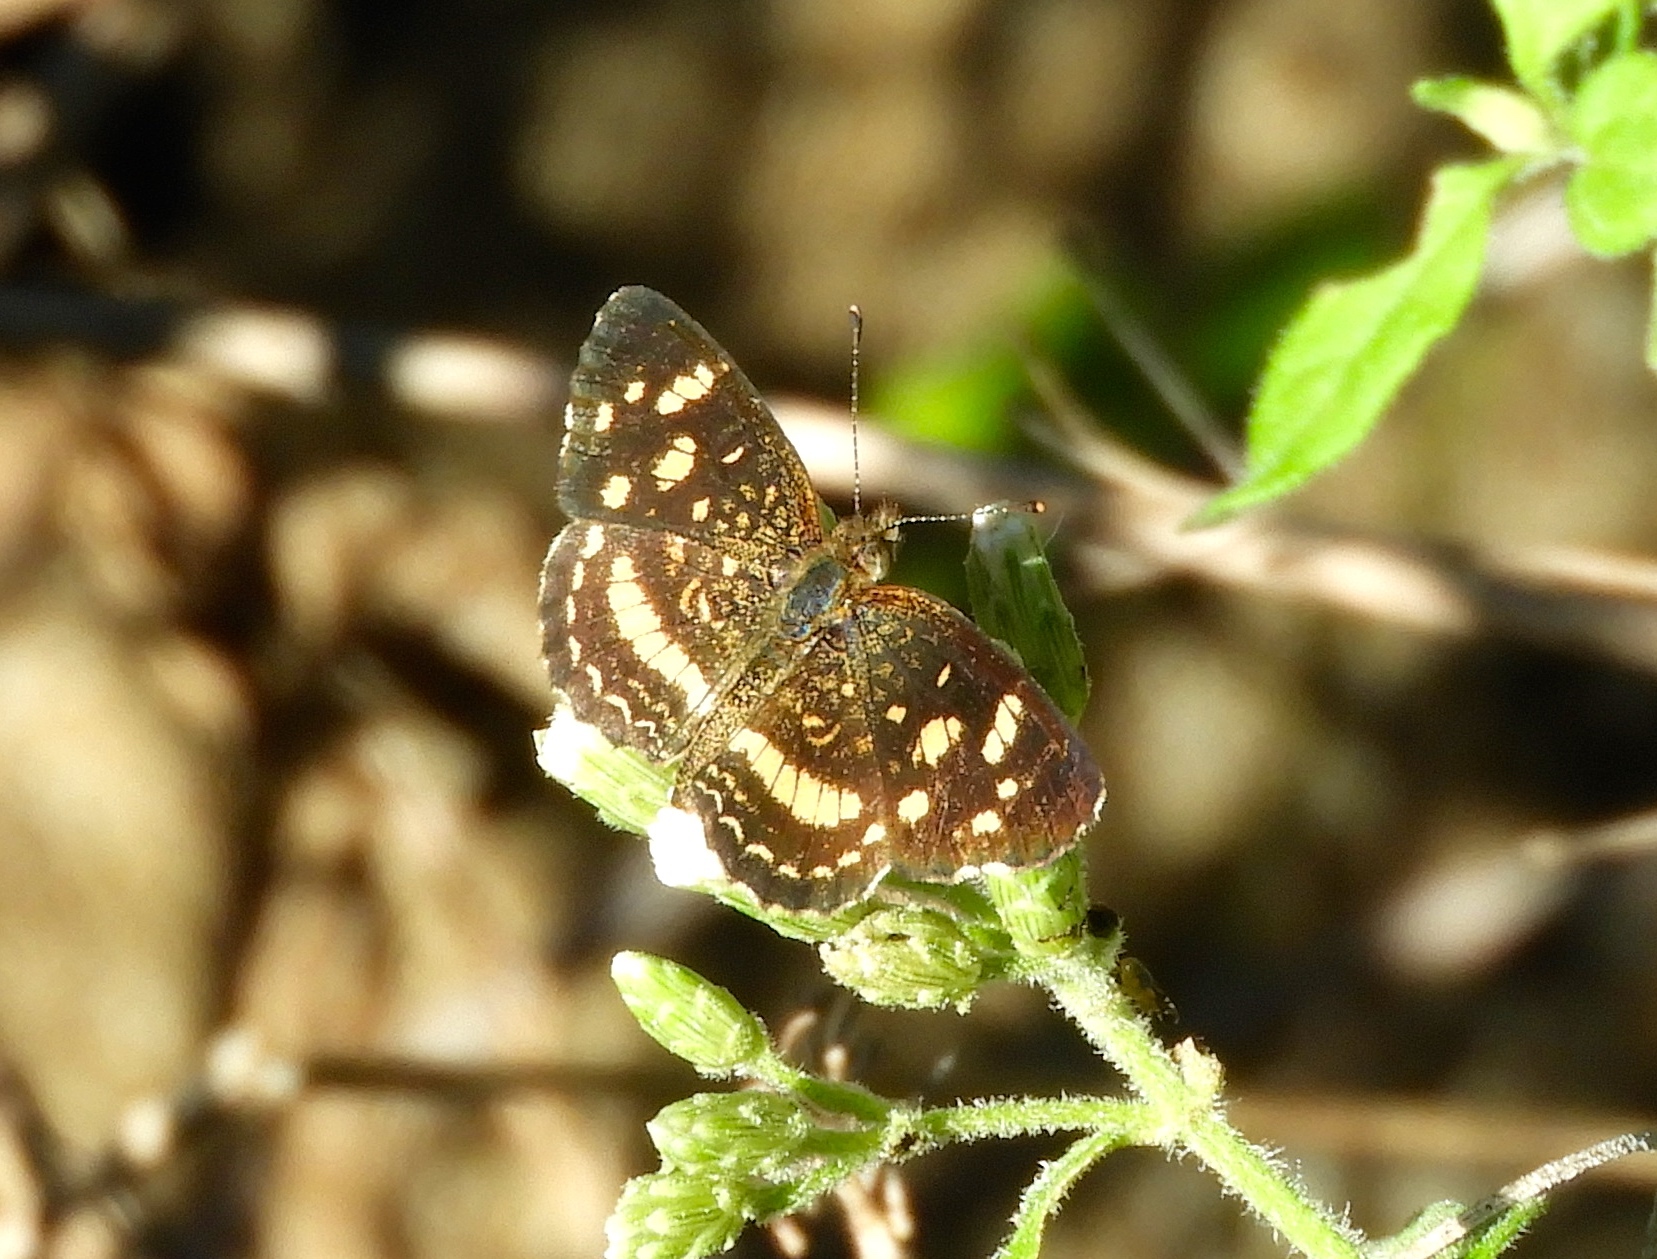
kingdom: Animalia
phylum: Arthropoda
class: Insecta
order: Lepidoptera
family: Nymphalidae
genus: Anthanassa
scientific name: Anthanassa
